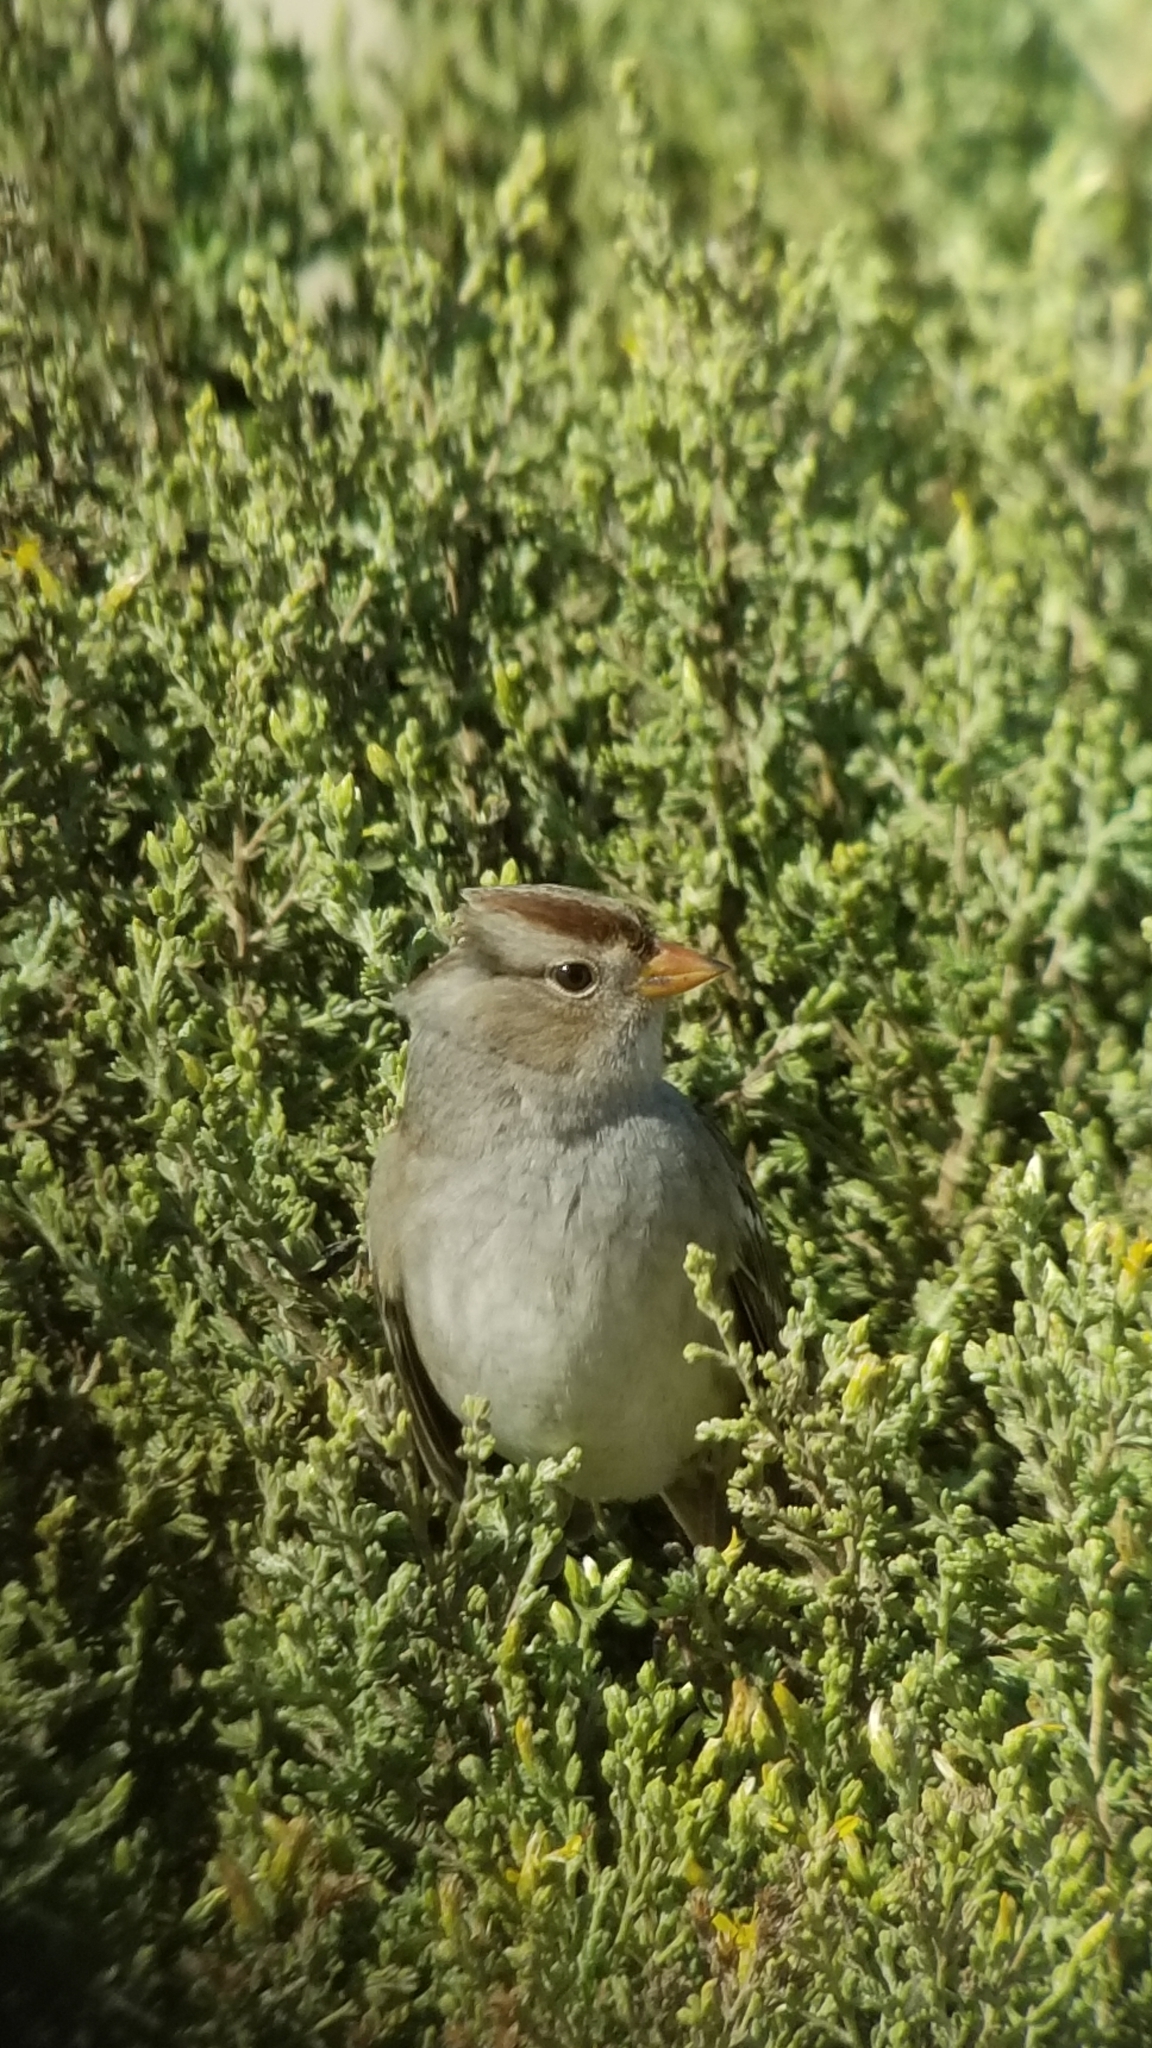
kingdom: Animalia
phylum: Chordata
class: Aves
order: Passeriformes
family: Passerellidae
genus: Zonotrichia
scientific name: Zonotrichia leucophrys
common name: White-crowned sparrow
